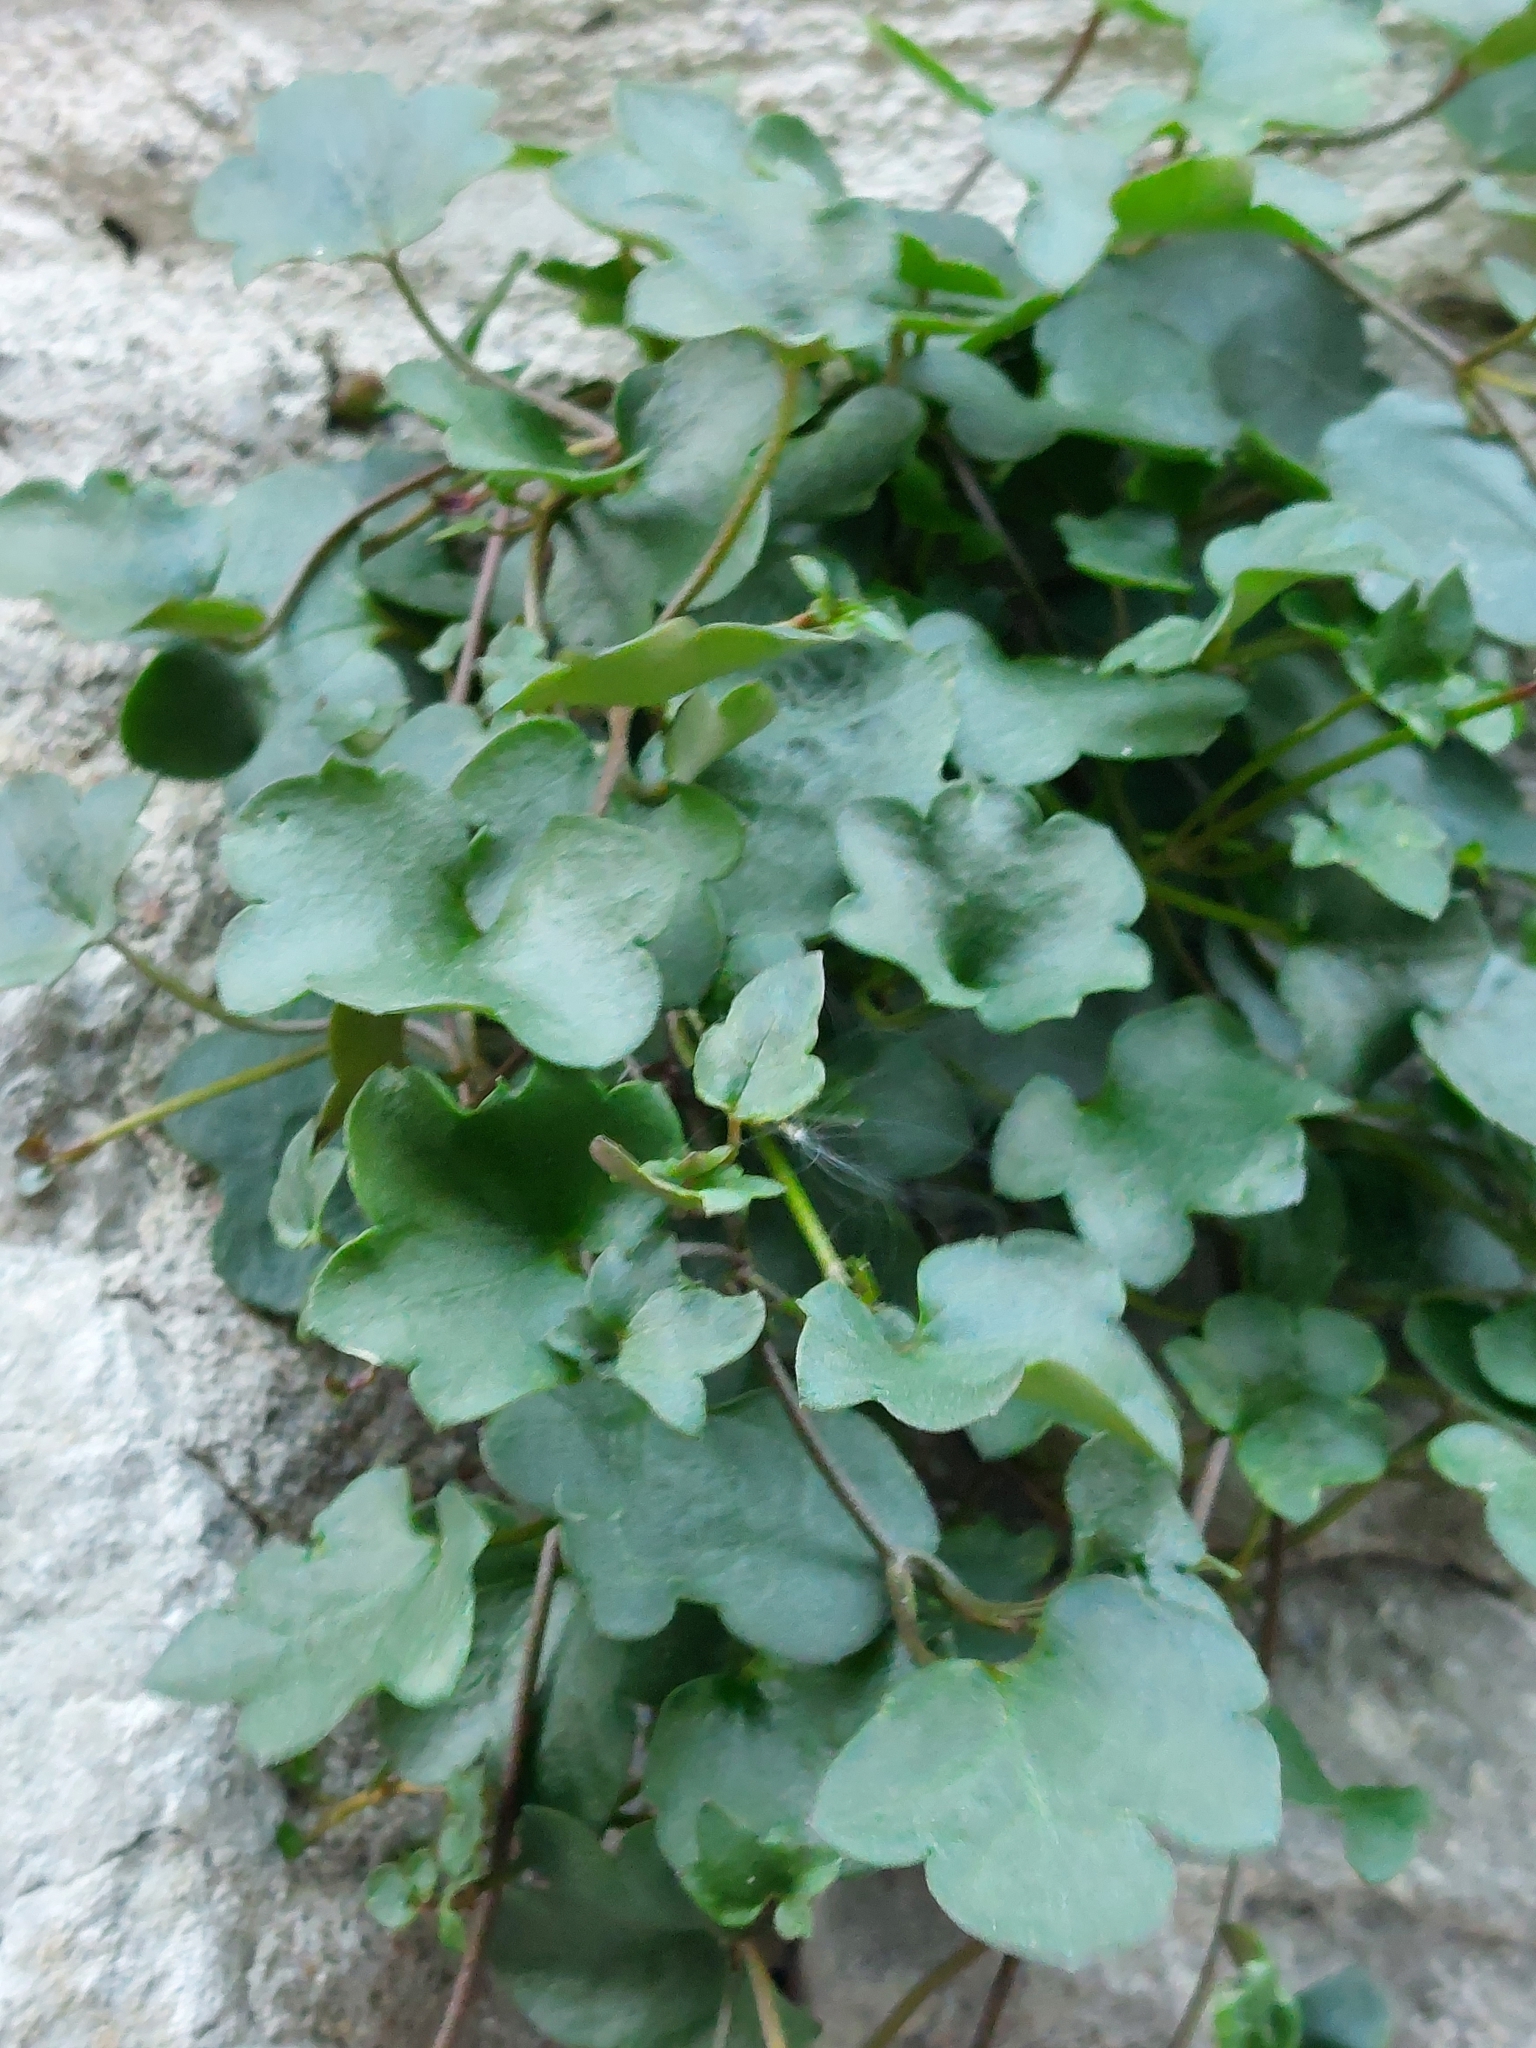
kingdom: Plantae
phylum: Tracheophyta
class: Magnoliopsida
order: Lamiales
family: Plantaginaceae
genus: Cymbalaria
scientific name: Cymbalaria muralis
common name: Ivy-leaved toadflax
